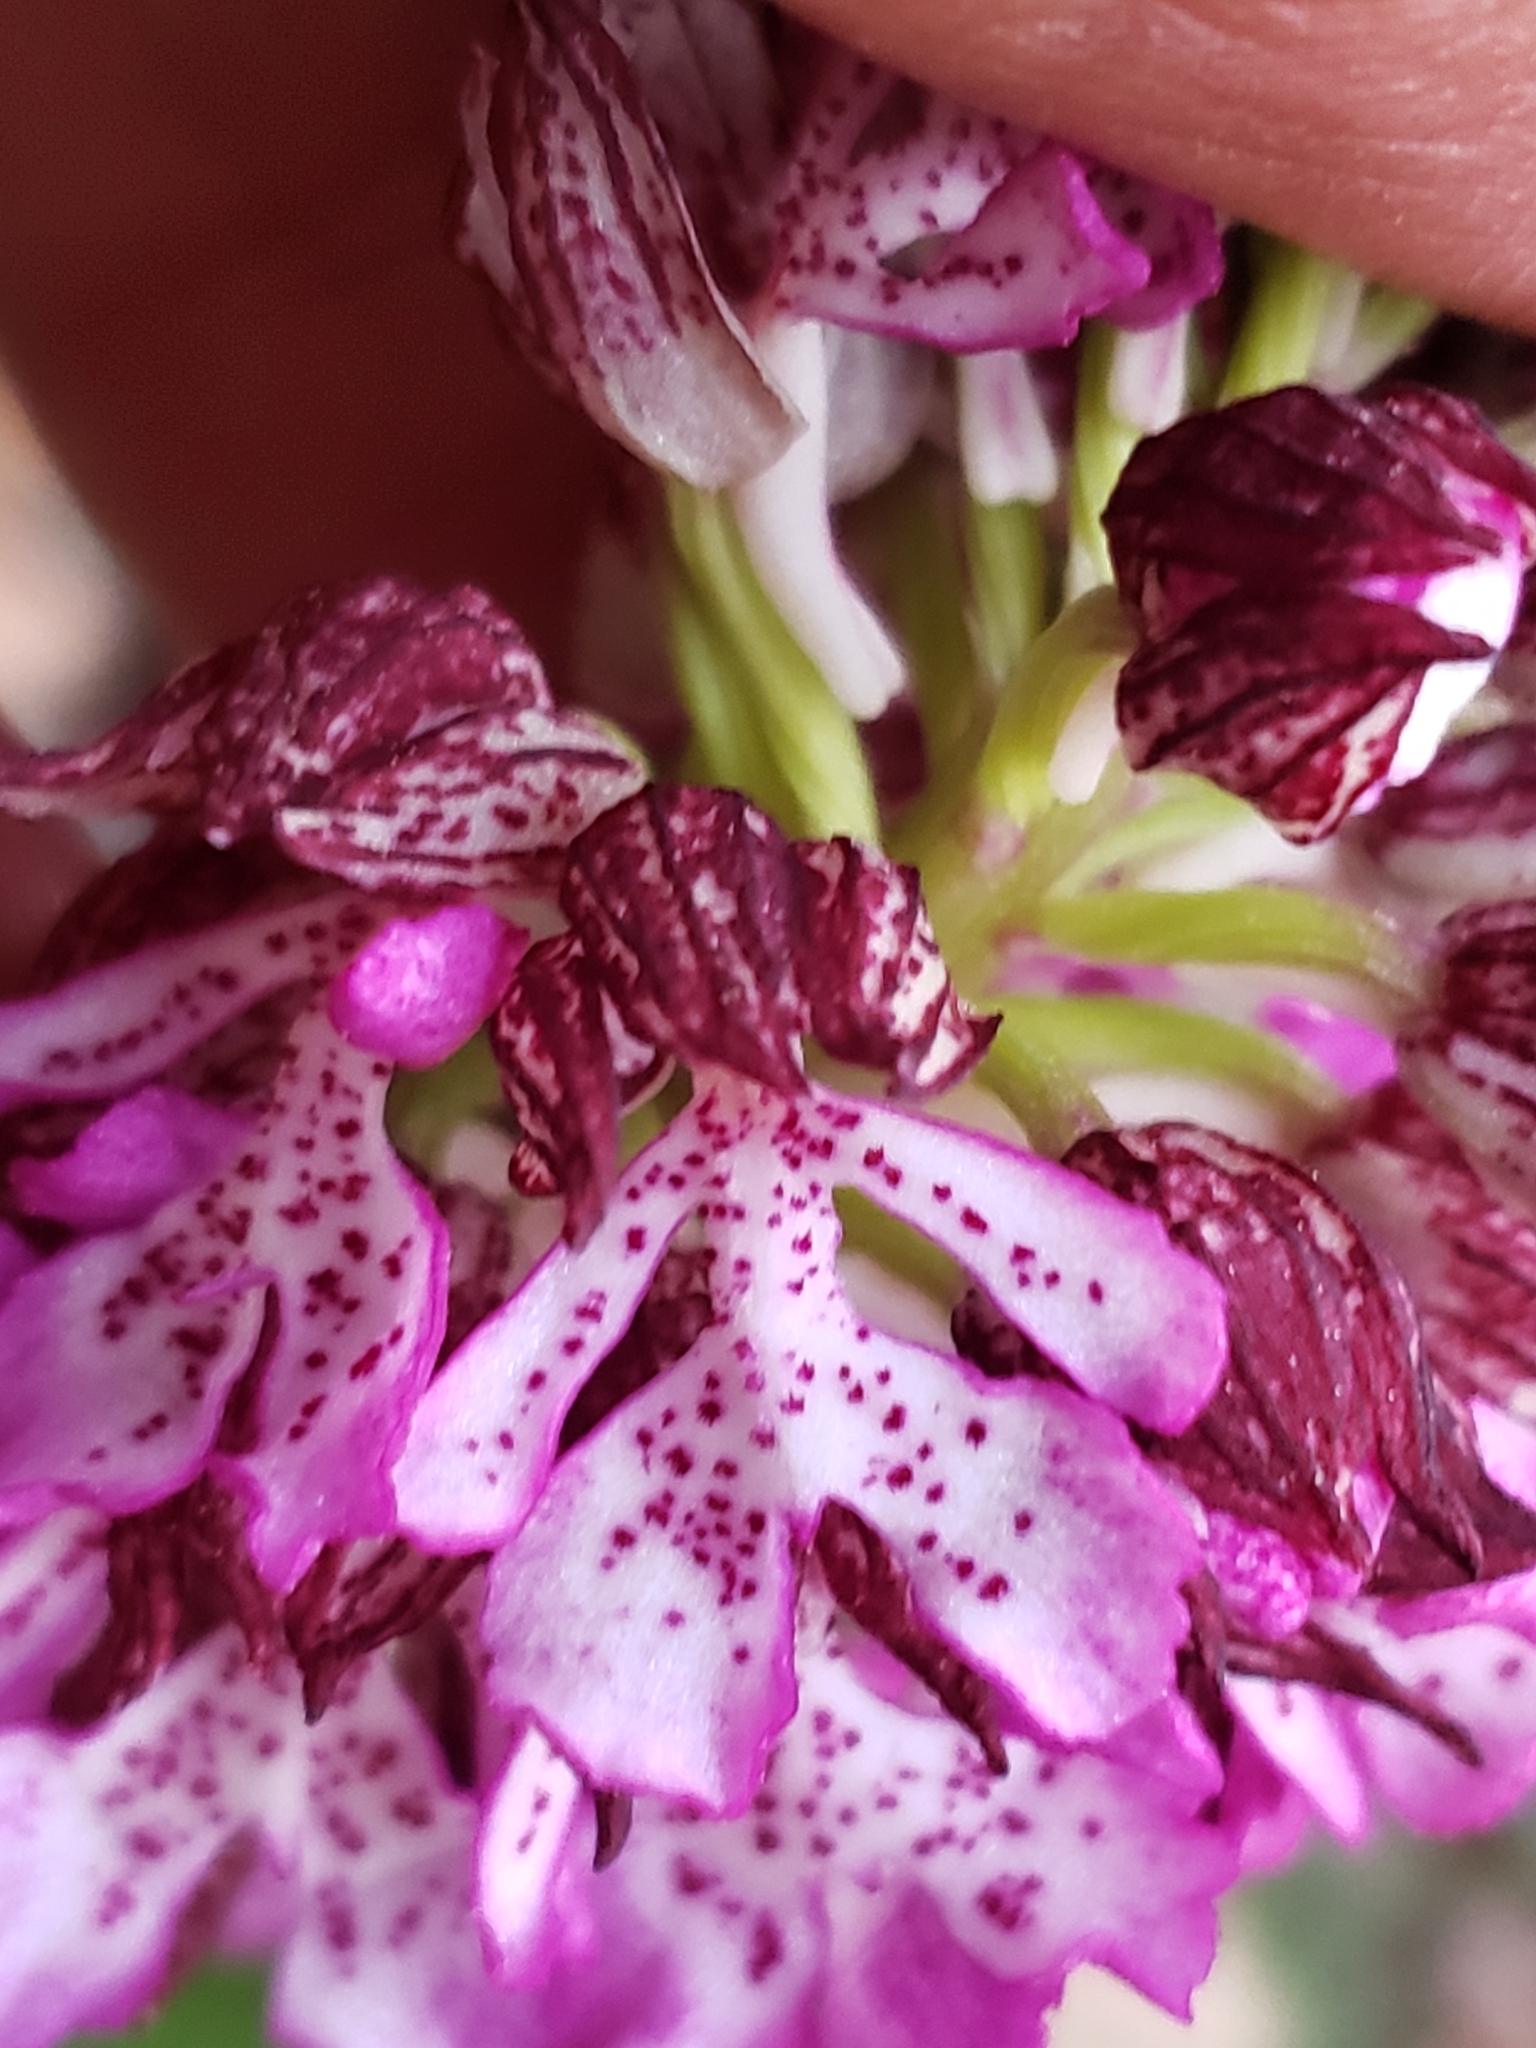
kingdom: Plantae
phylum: Tracheophyta
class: Liliopsida
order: Asparagales
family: Orchidaceae
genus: Orchis
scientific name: Orchis purpurea
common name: Lady orchid
